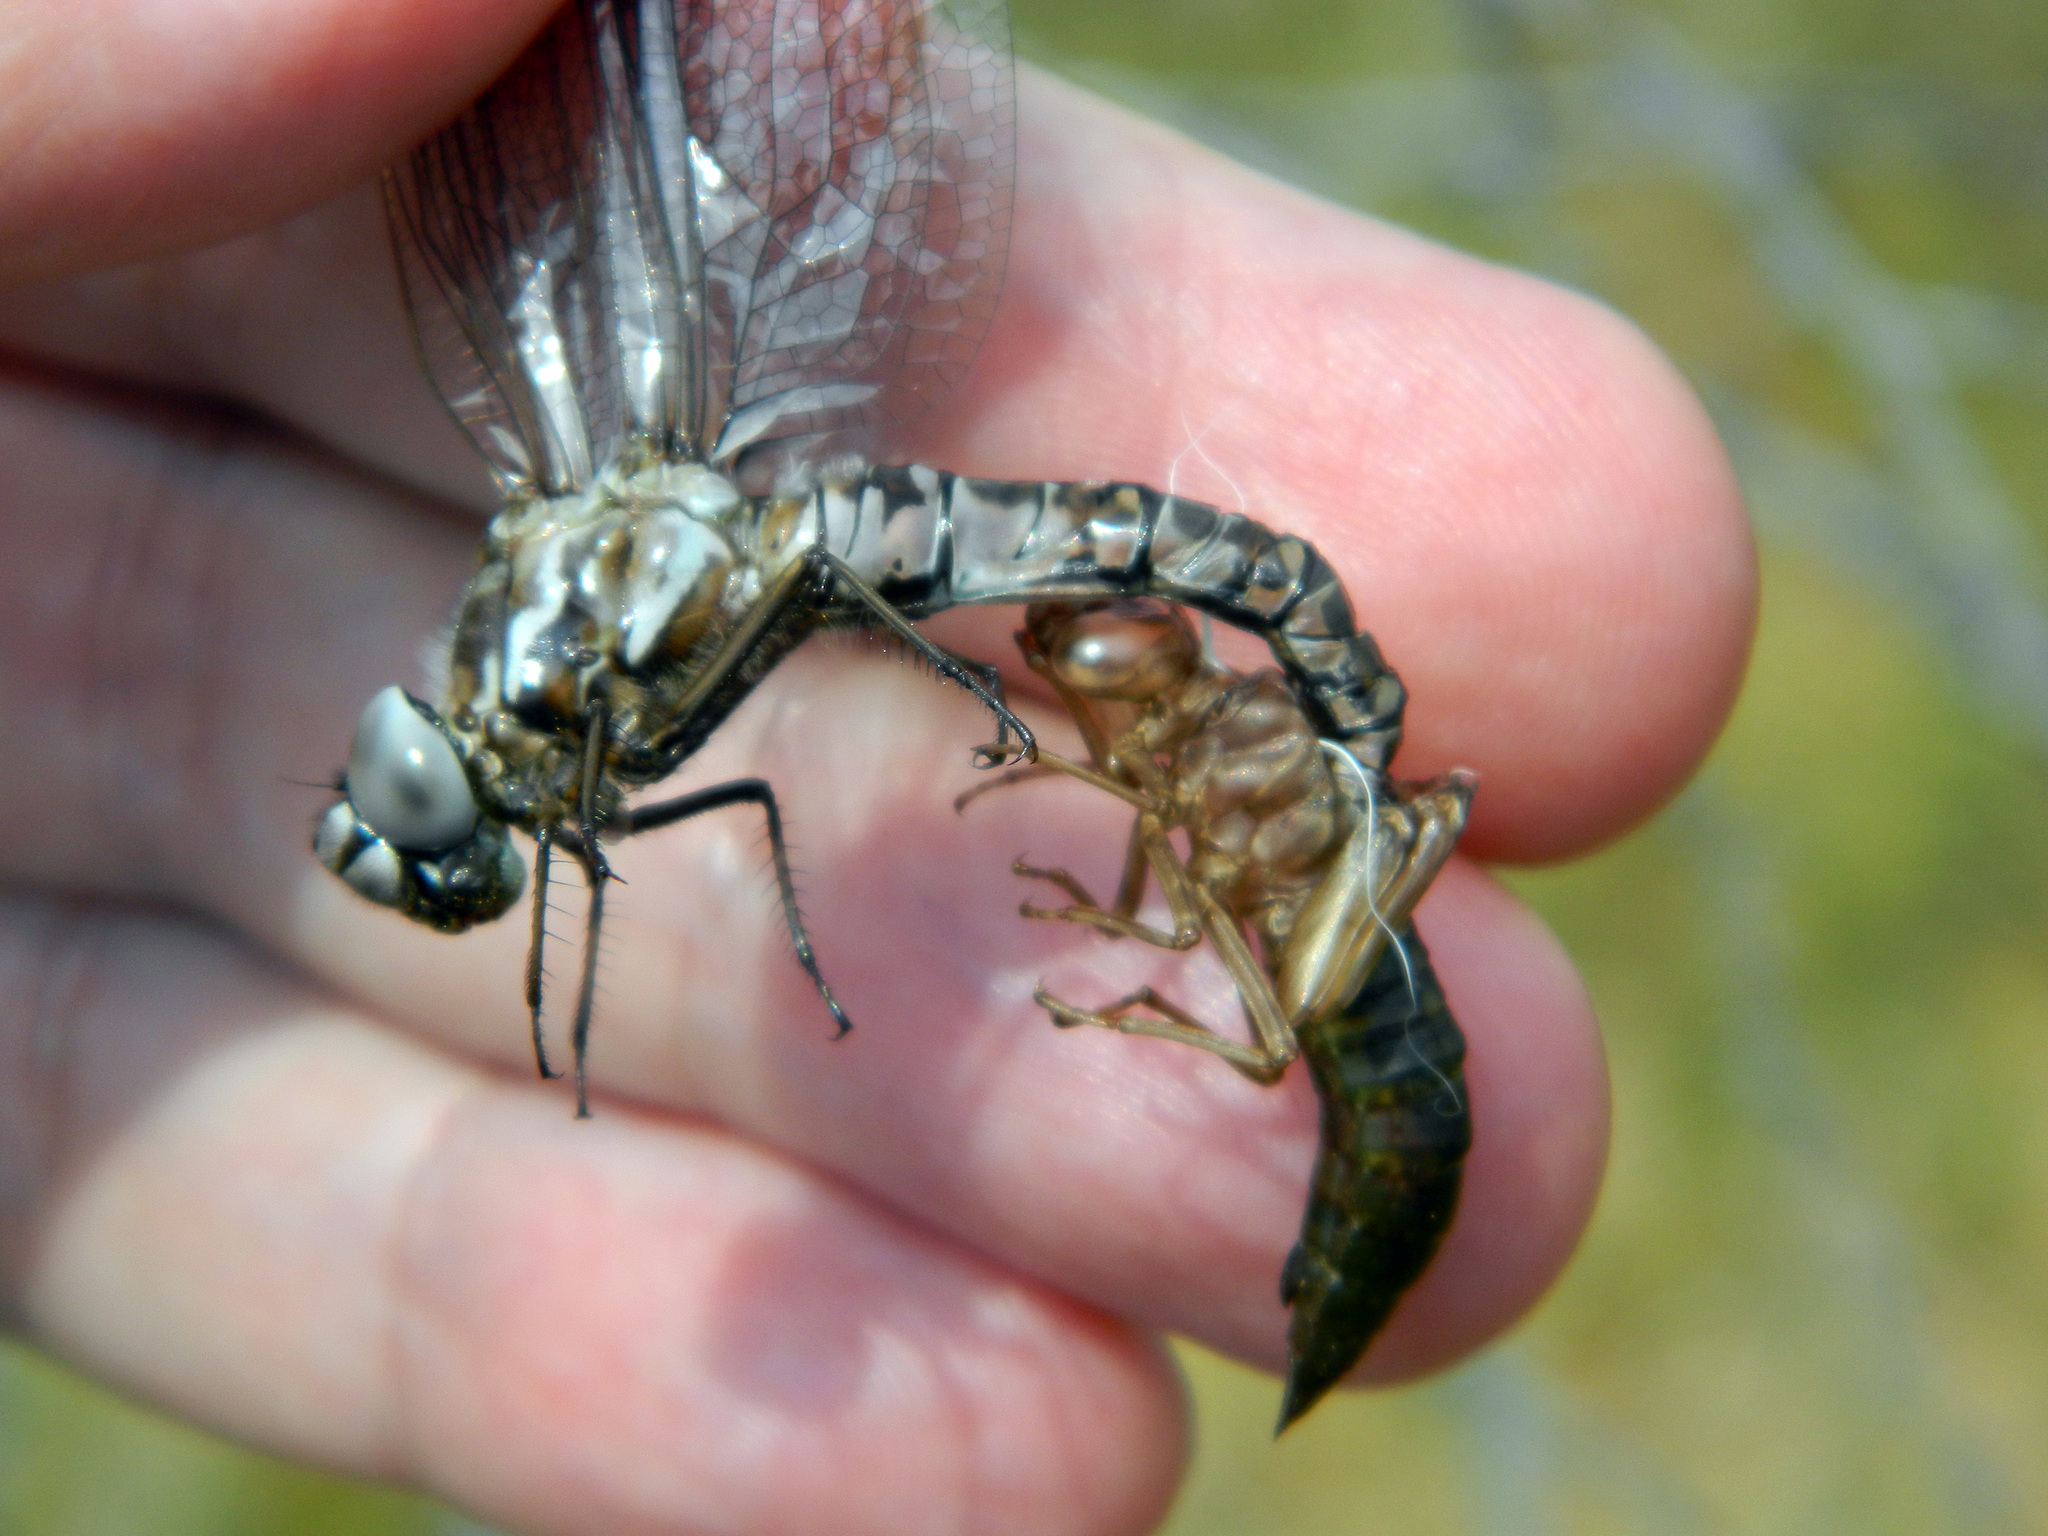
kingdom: Animalia
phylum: Arthropoda
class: Insecta
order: Odonata
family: Aeshnidae
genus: Aeshna
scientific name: Aeshna sitchensis
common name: Zigzag darner
